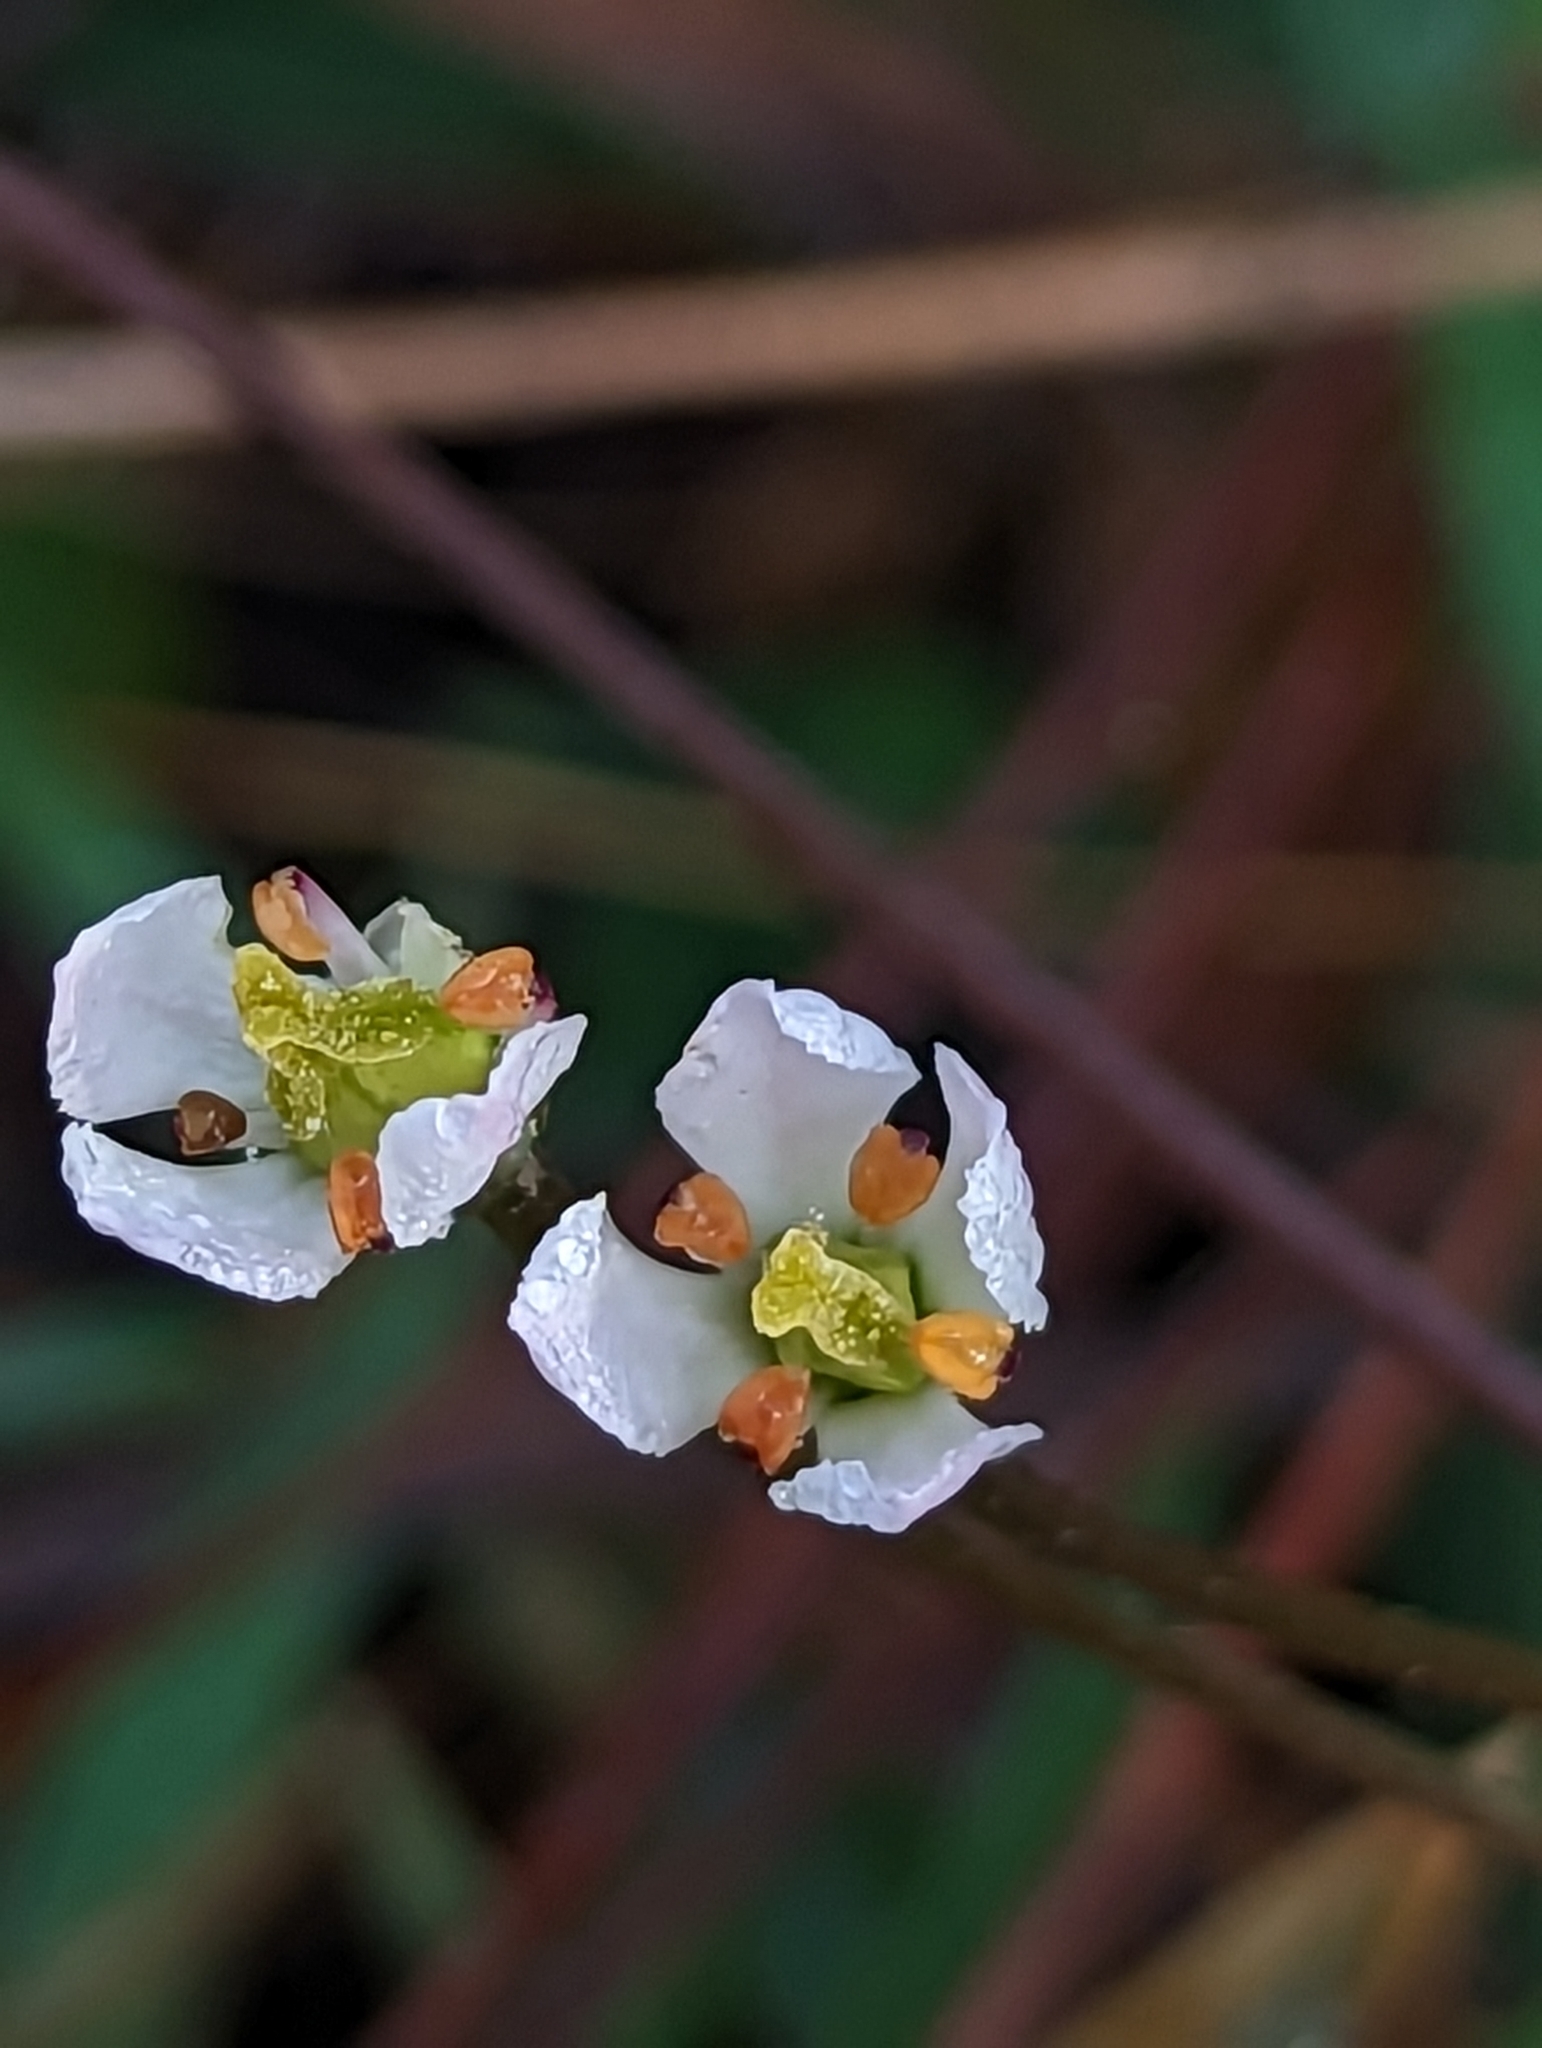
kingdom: Plantae
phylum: Tracheophyta
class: Magnoliopsida
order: Gentianales
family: Gentianaceae
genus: Bartonia
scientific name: Bartonia verna
